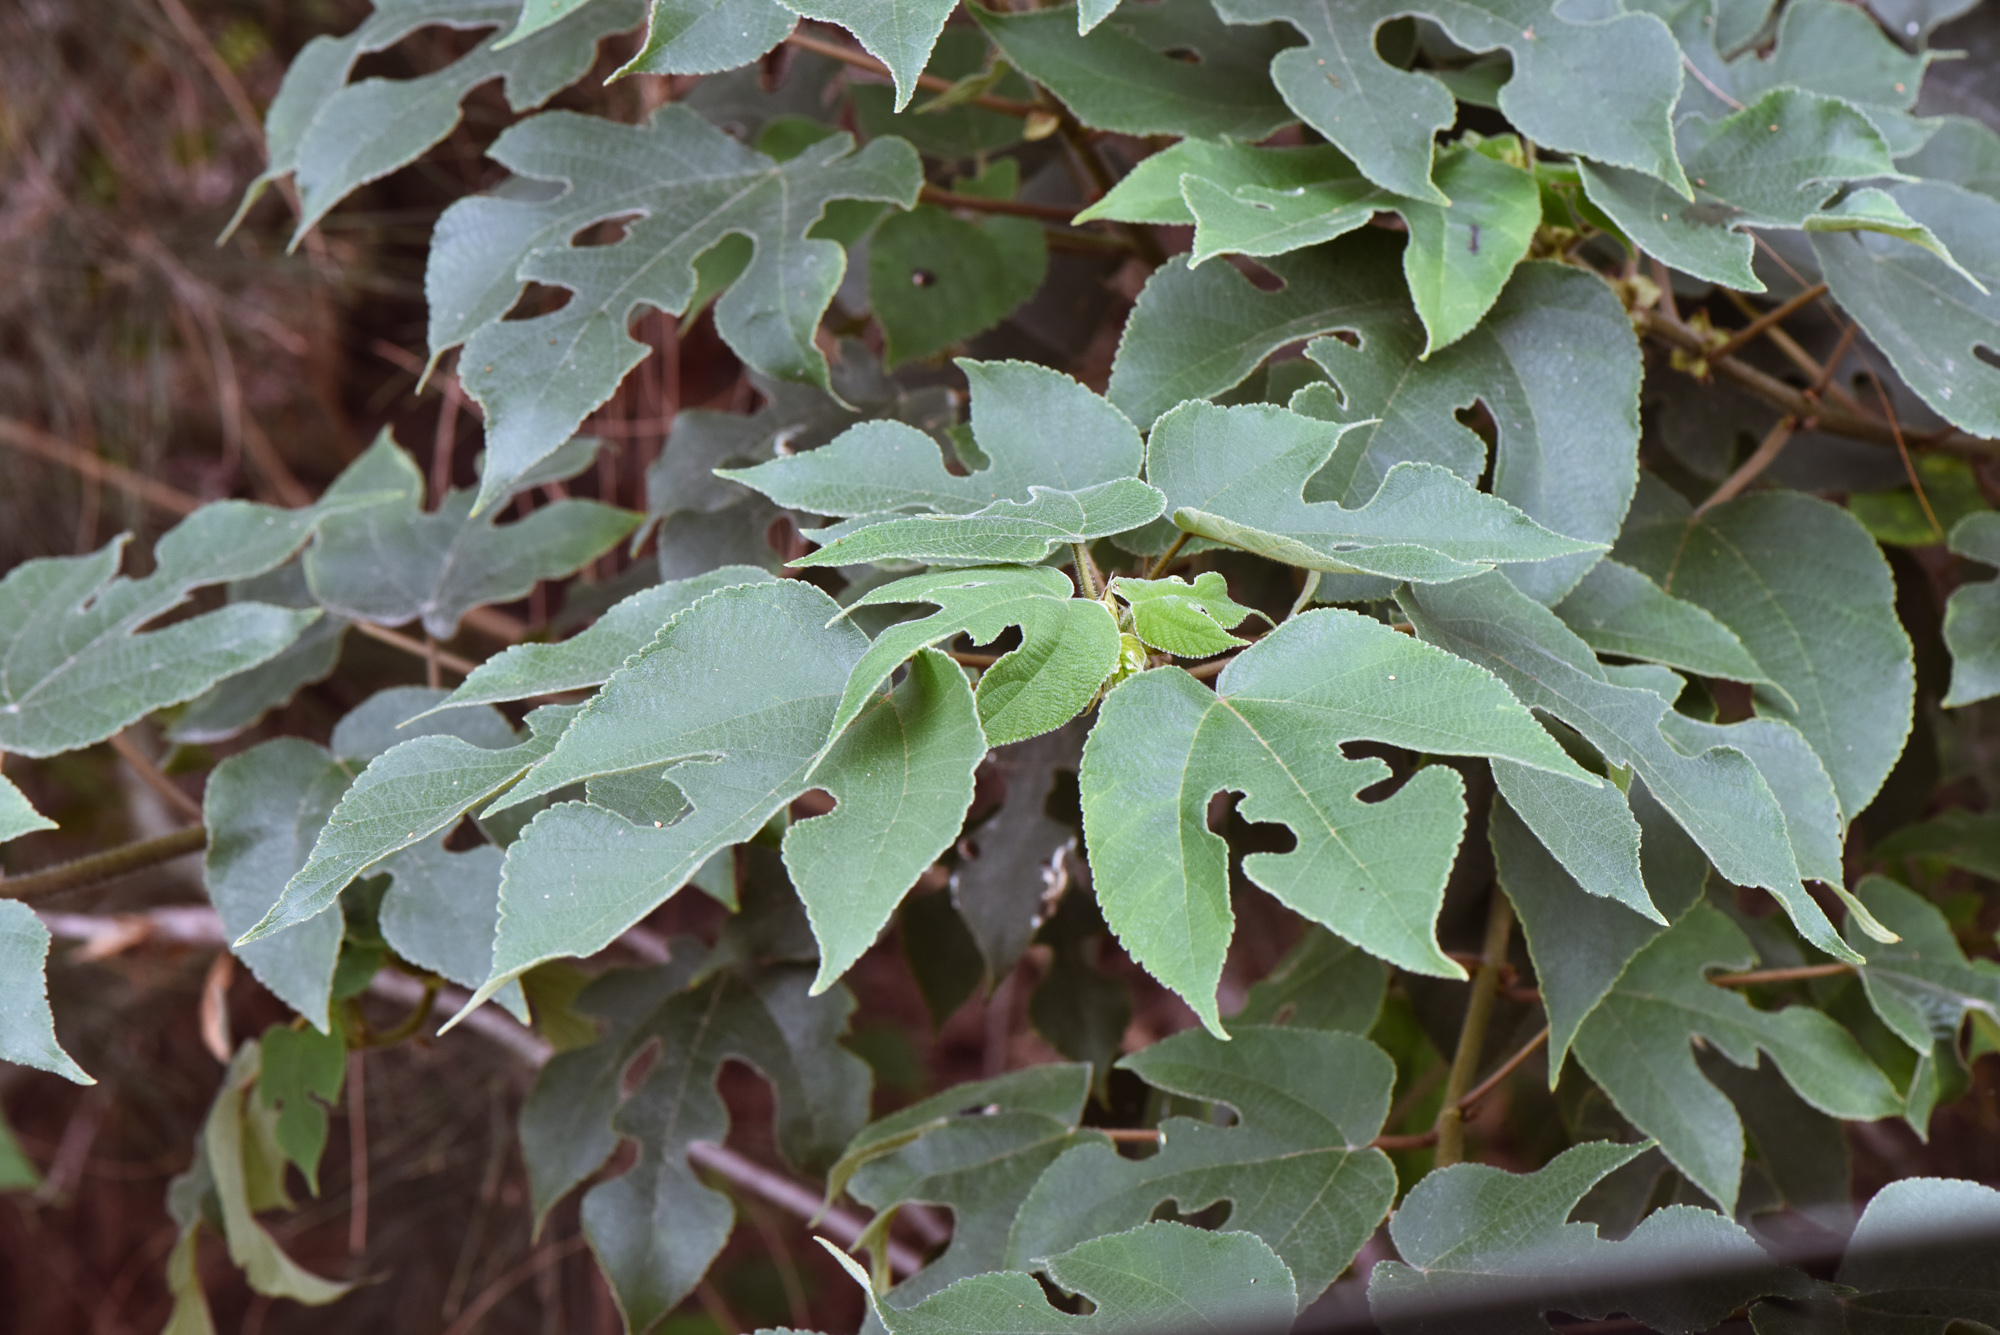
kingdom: Plantae
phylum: Tracheophyta
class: Magnoliopsida
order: Rosales
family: Moraceae
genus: Broussonetia
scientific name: Broussonetia papyrifera
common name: Paper mulberry
